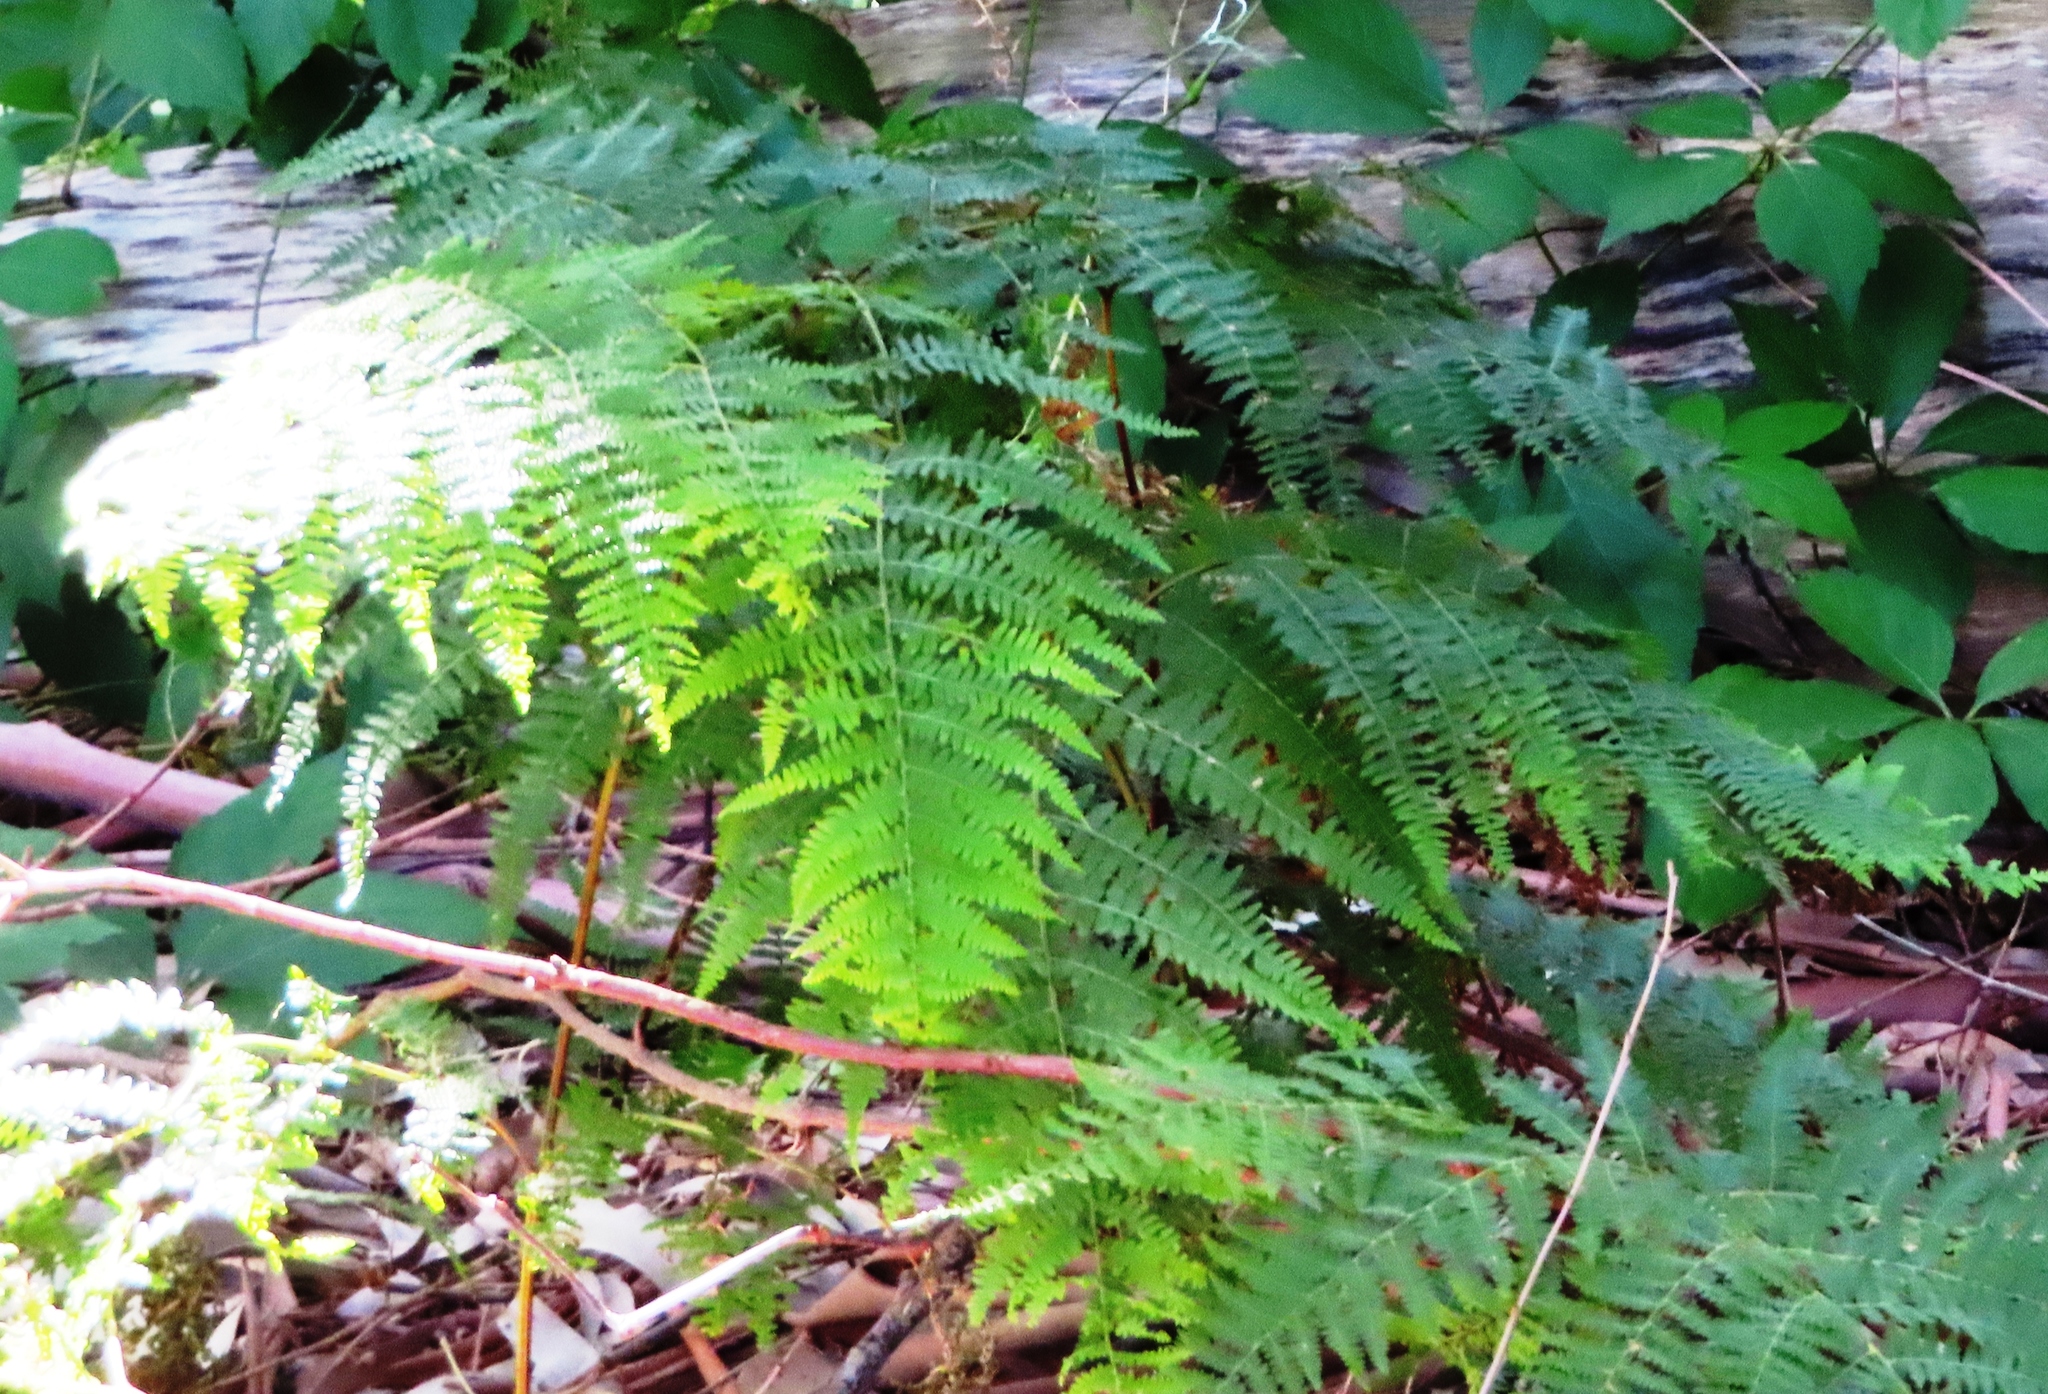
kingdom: Plantae
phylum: Tracheophyta
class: Polypodiopsida
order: Polypodiales
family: Dennstaedtiaceae
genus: Pteridium
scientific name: Pteridium aquilinum
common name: Bracken
